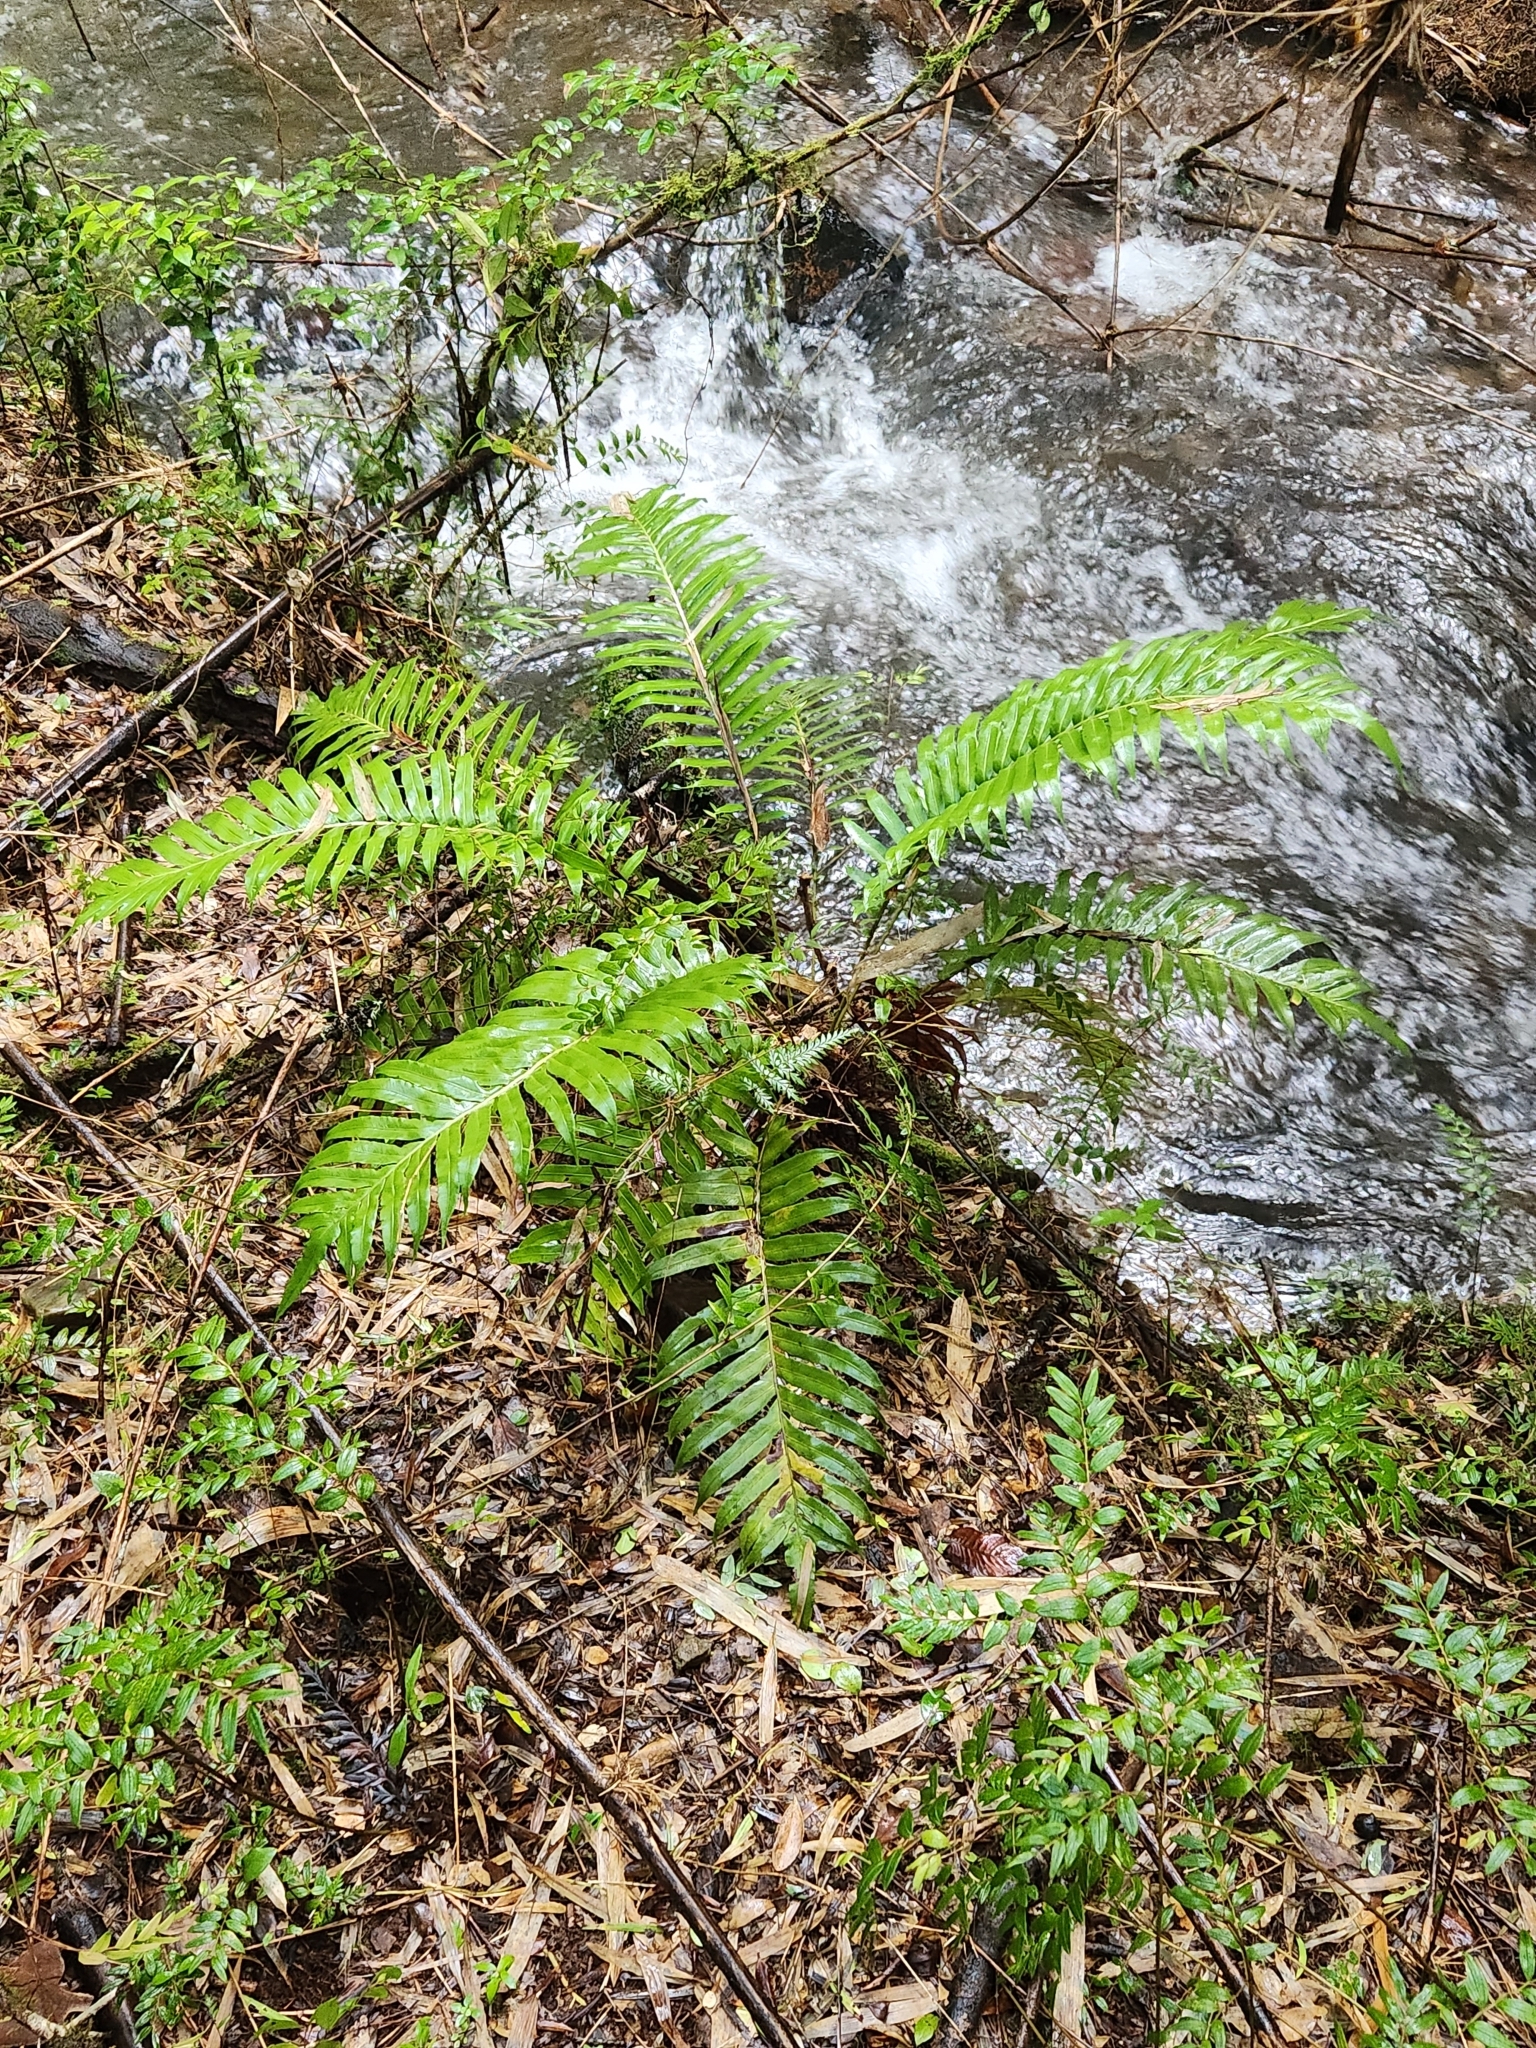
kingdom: Plantae
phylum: Tracheophyta
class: Polypodiopsida
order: Polypodiales
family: Blechnaceae
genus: Lomariocycas
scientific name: Lomariocycas magellanica
